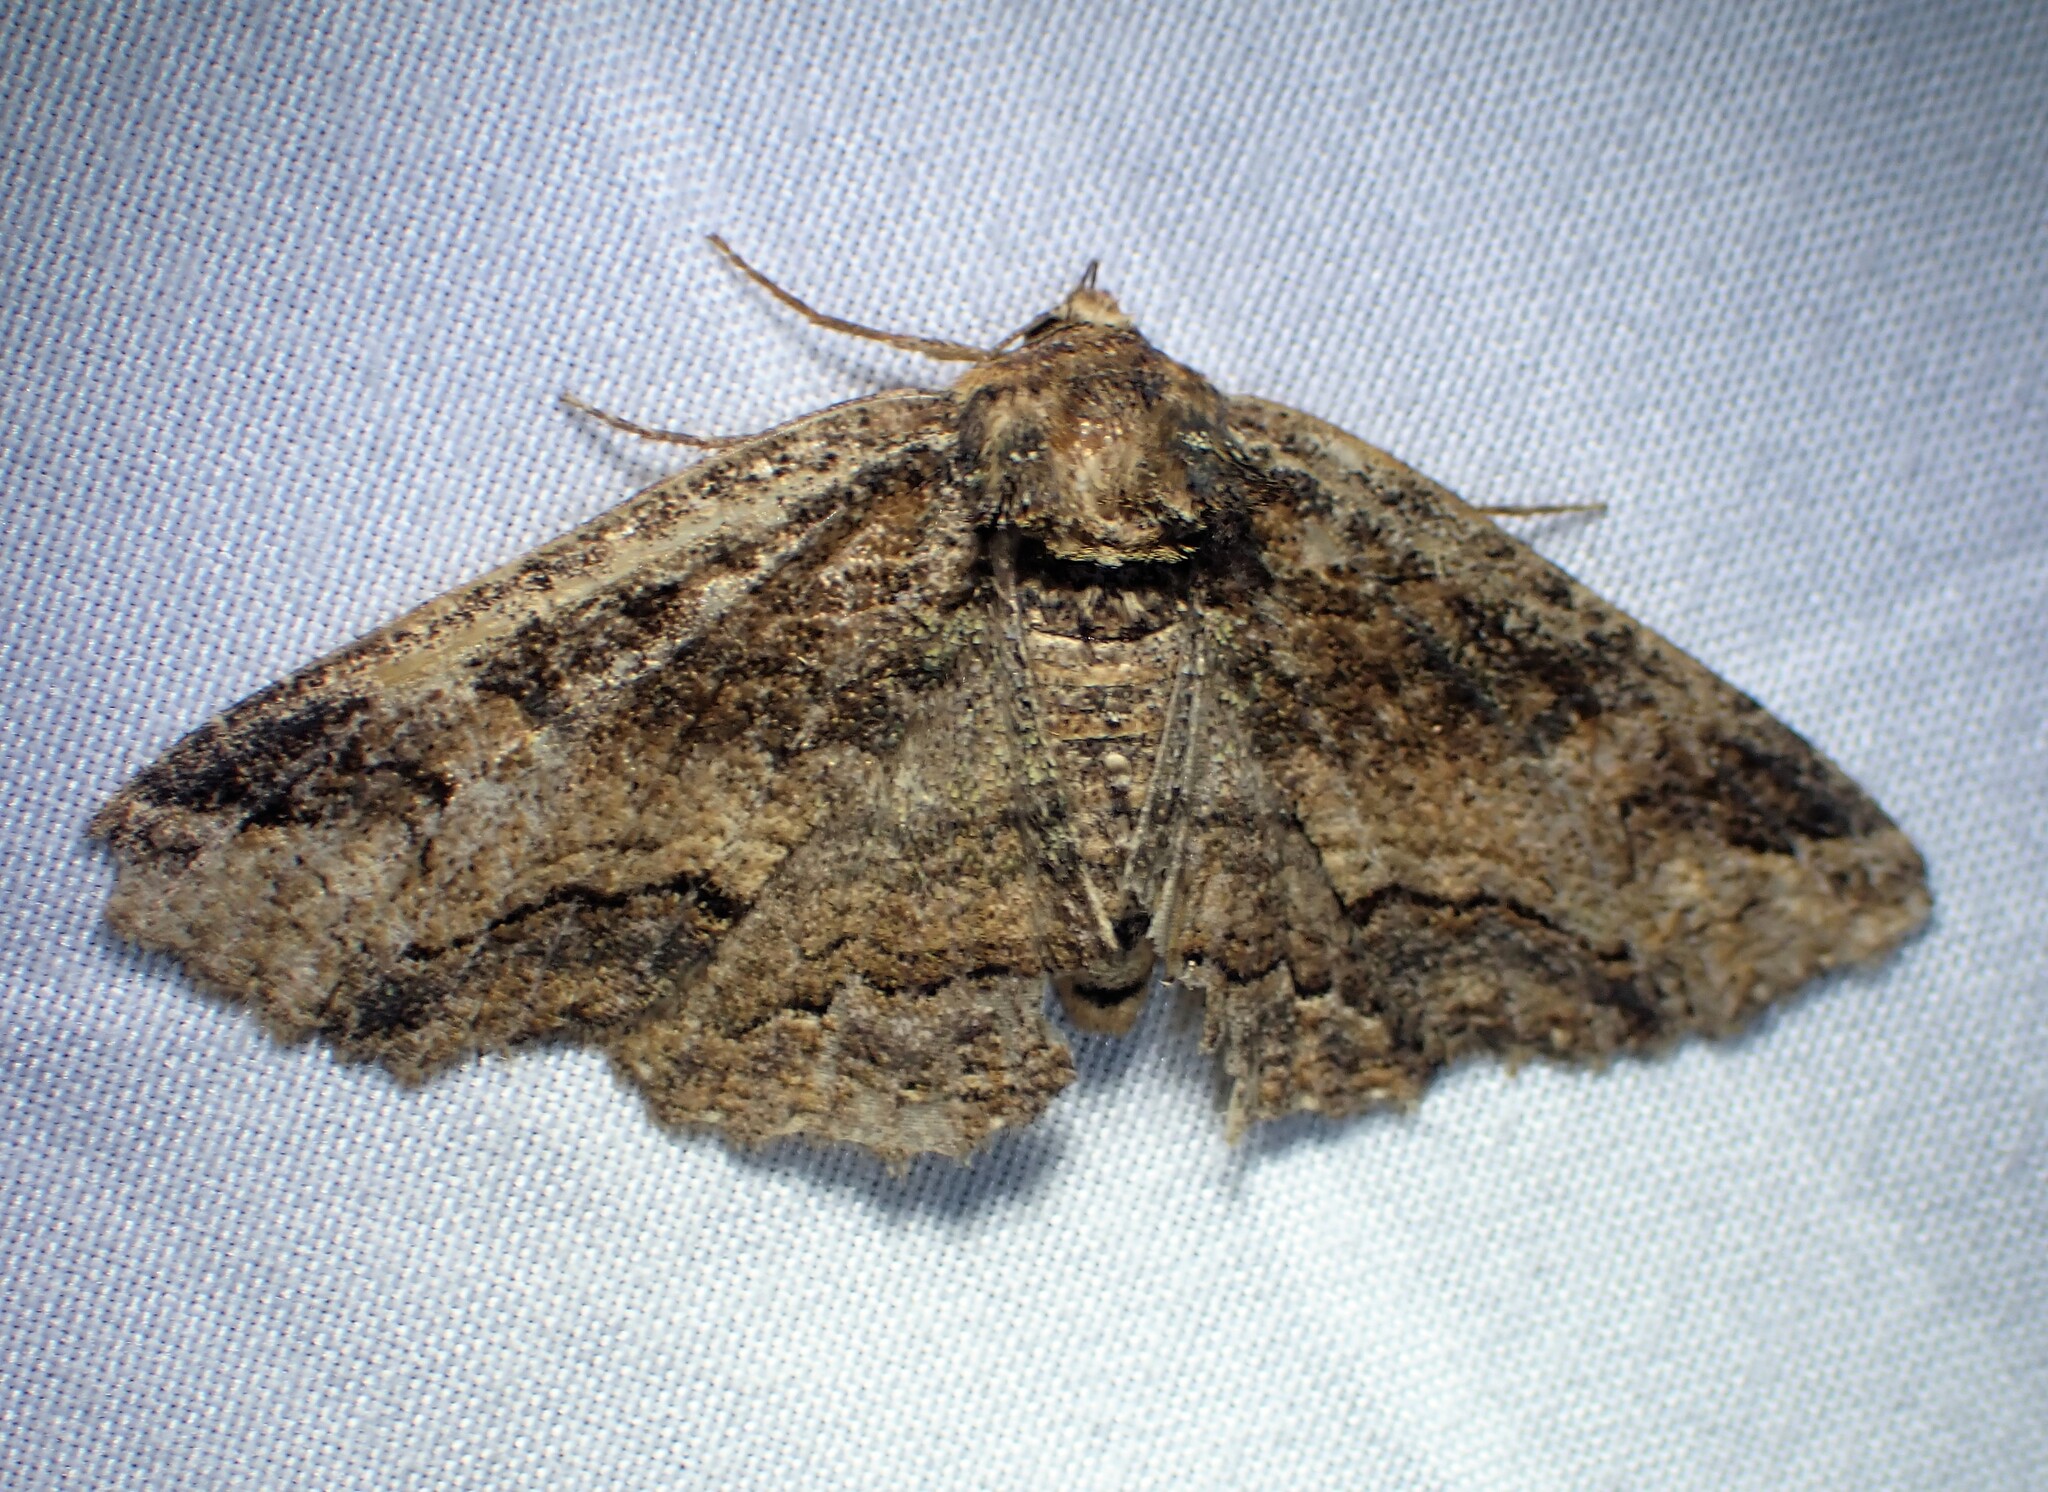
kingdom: Animalia
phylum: Arthropoda
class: Insecta
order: Lepidoptera
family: Erebidae
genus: Zale
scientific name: Zale minerea
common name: Colorful zale moth
